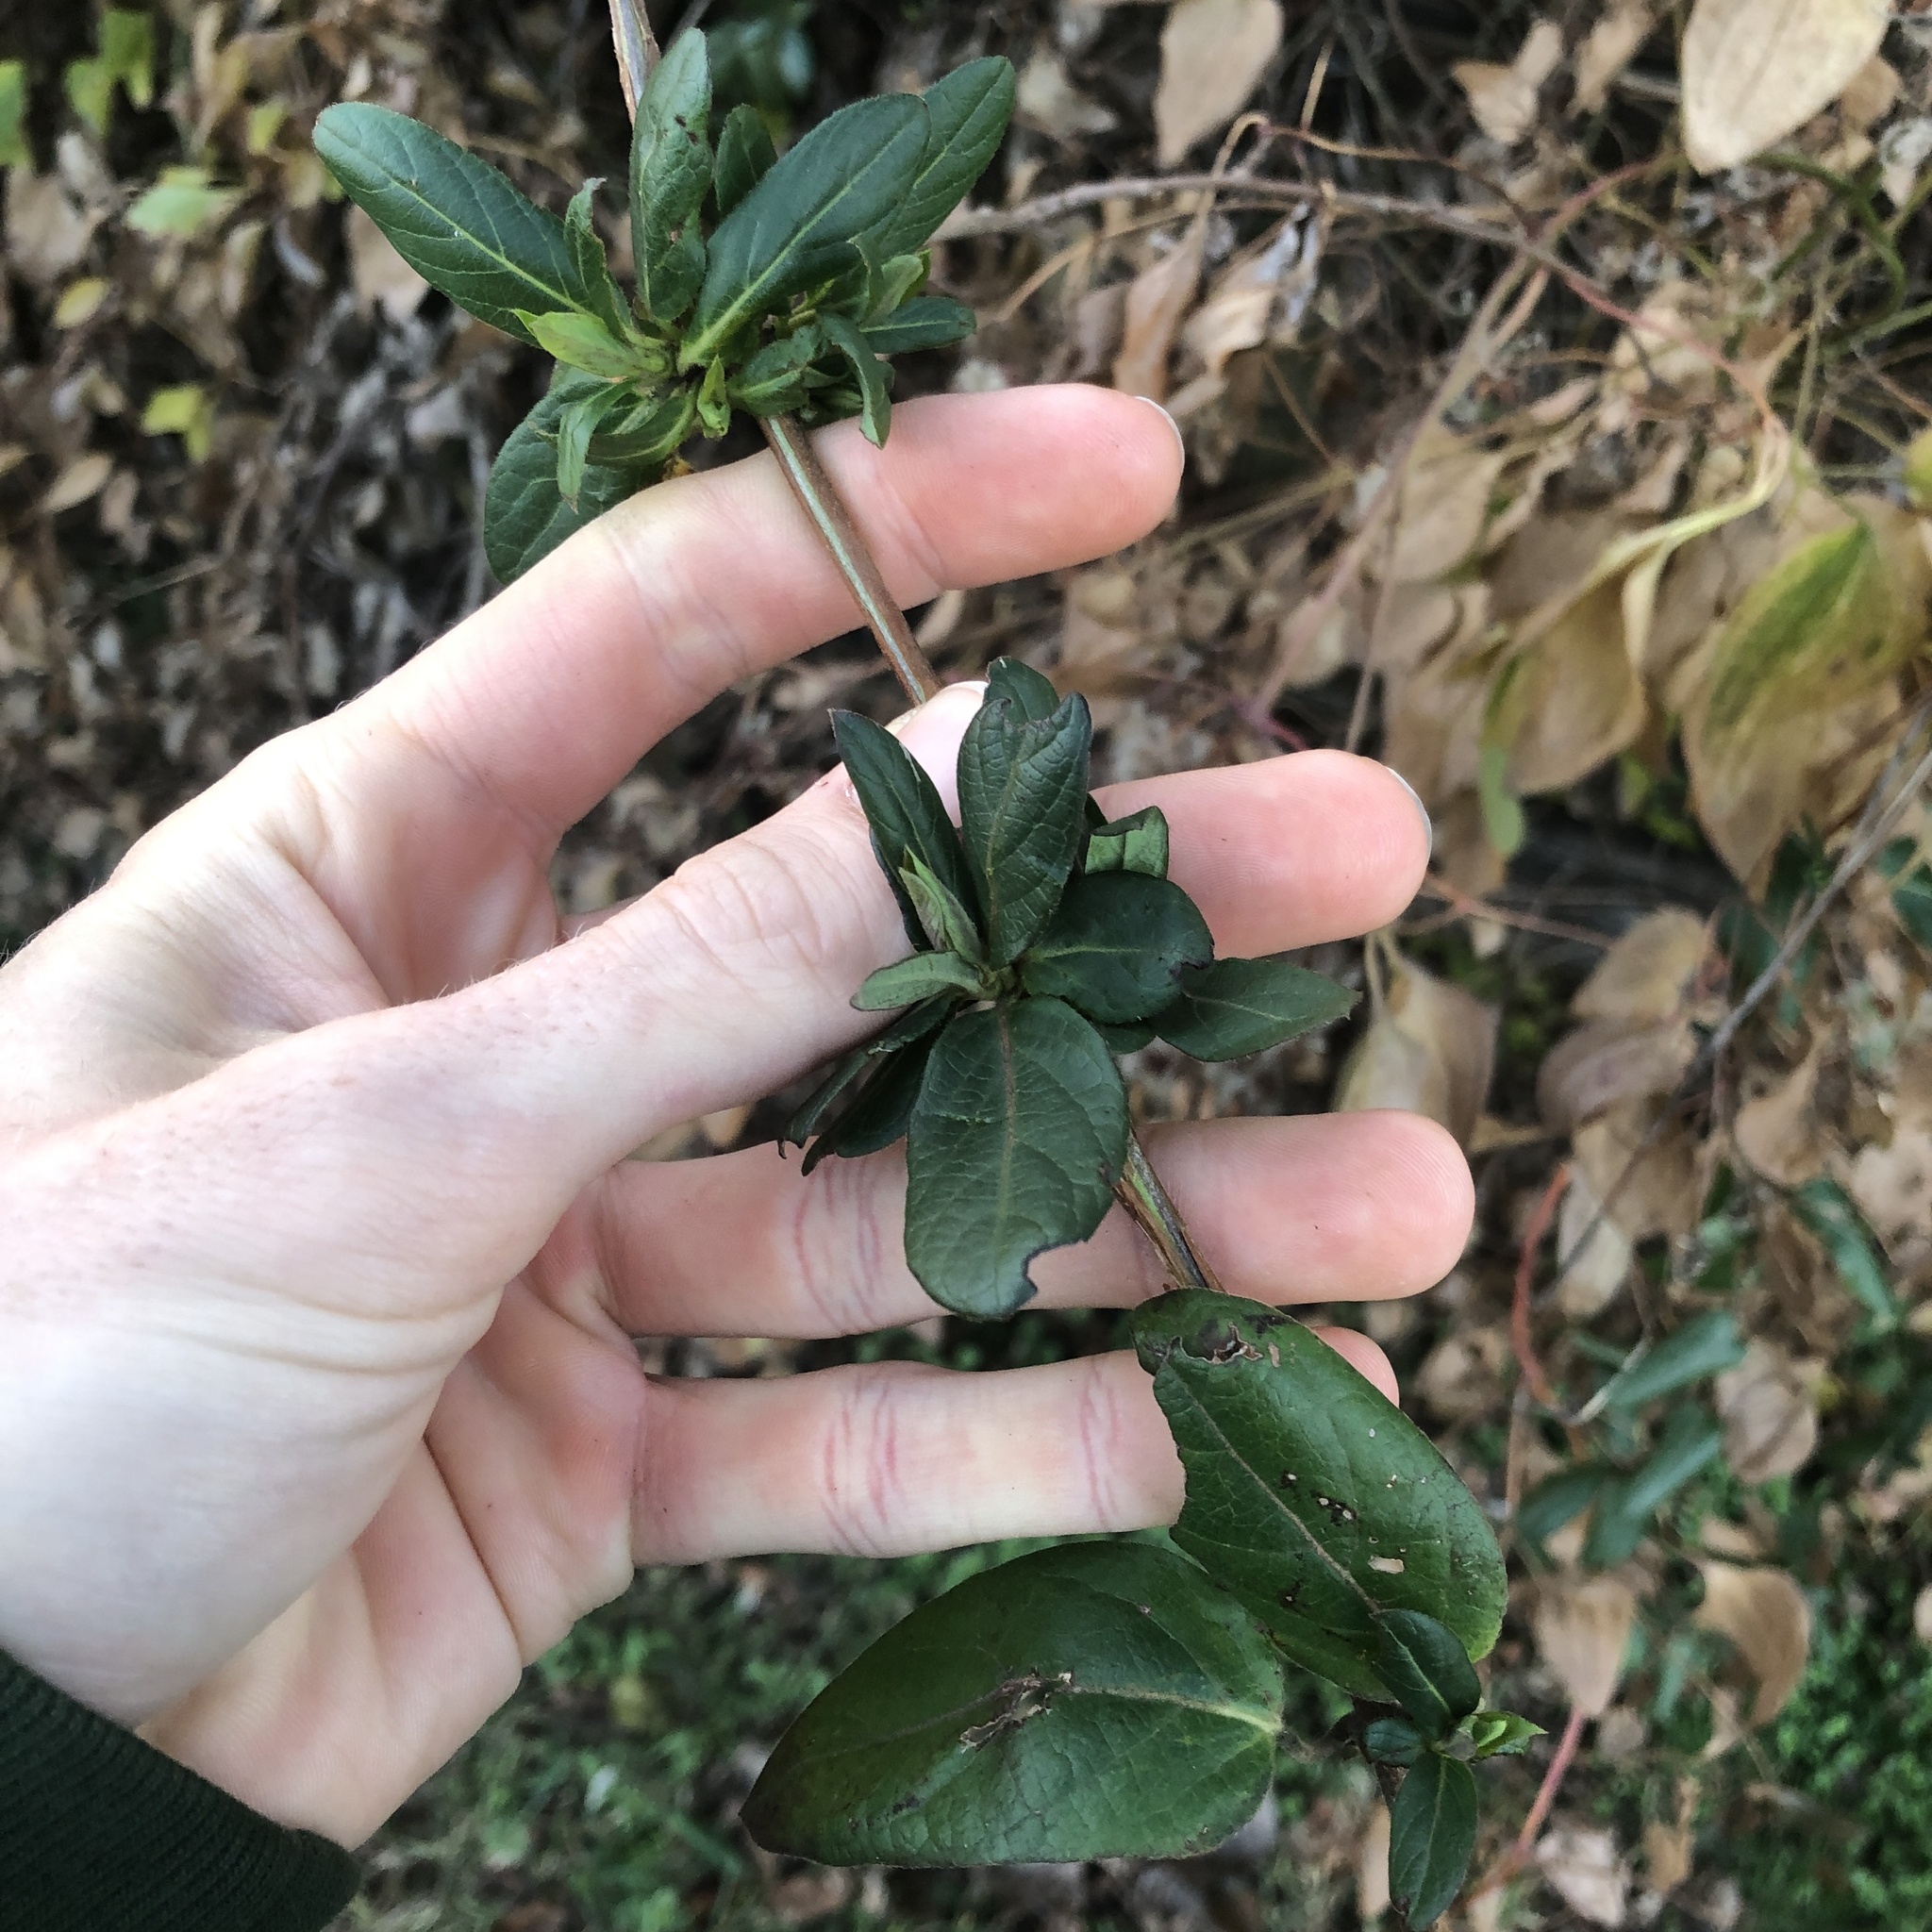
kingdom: Plantae
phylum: Tracheophyta
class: Magnoliopsida
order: Dipsacales
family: Caprifoliaceae
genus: Lonicera
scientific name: Lonicera japonica
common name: Japanese honeysuckle
